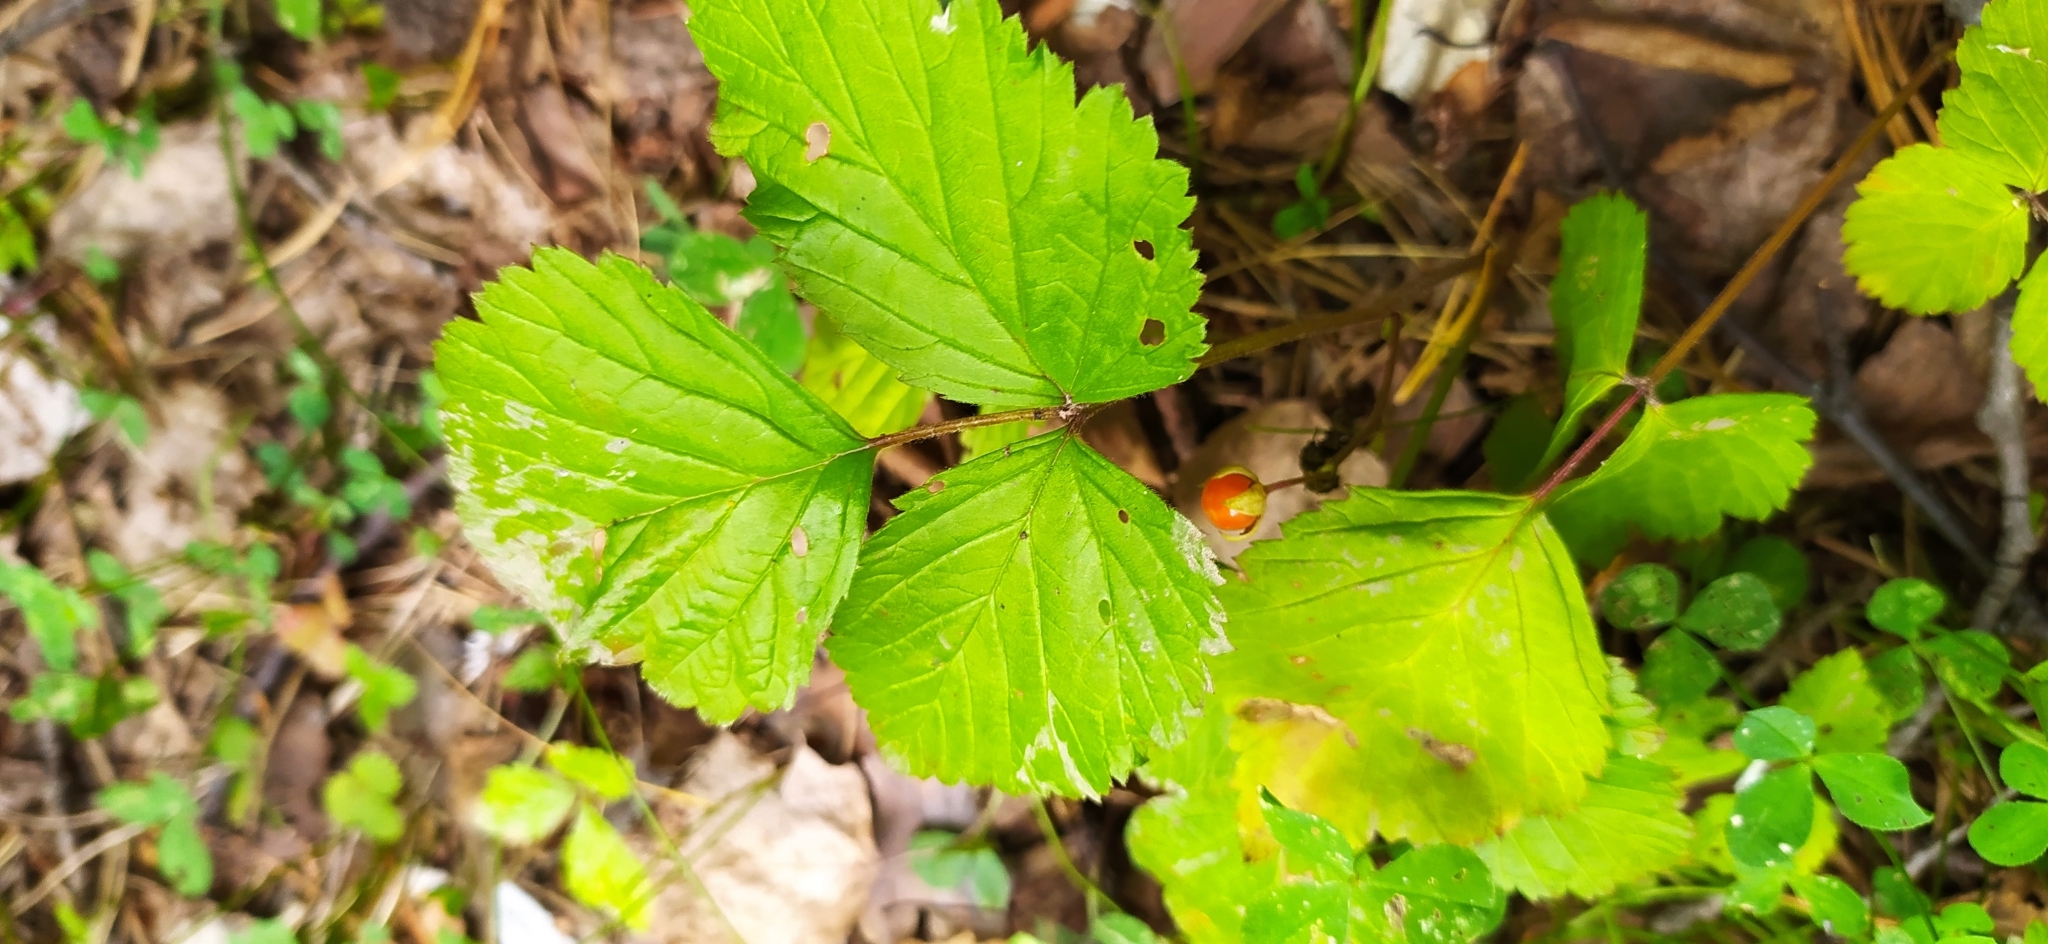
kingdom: Plantae
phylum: Tracheophyta
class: Magnoliopsida
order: Rosales
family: Rosaceae
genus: Rubus
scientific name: Rubus saxatilis
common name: Stone bramble
